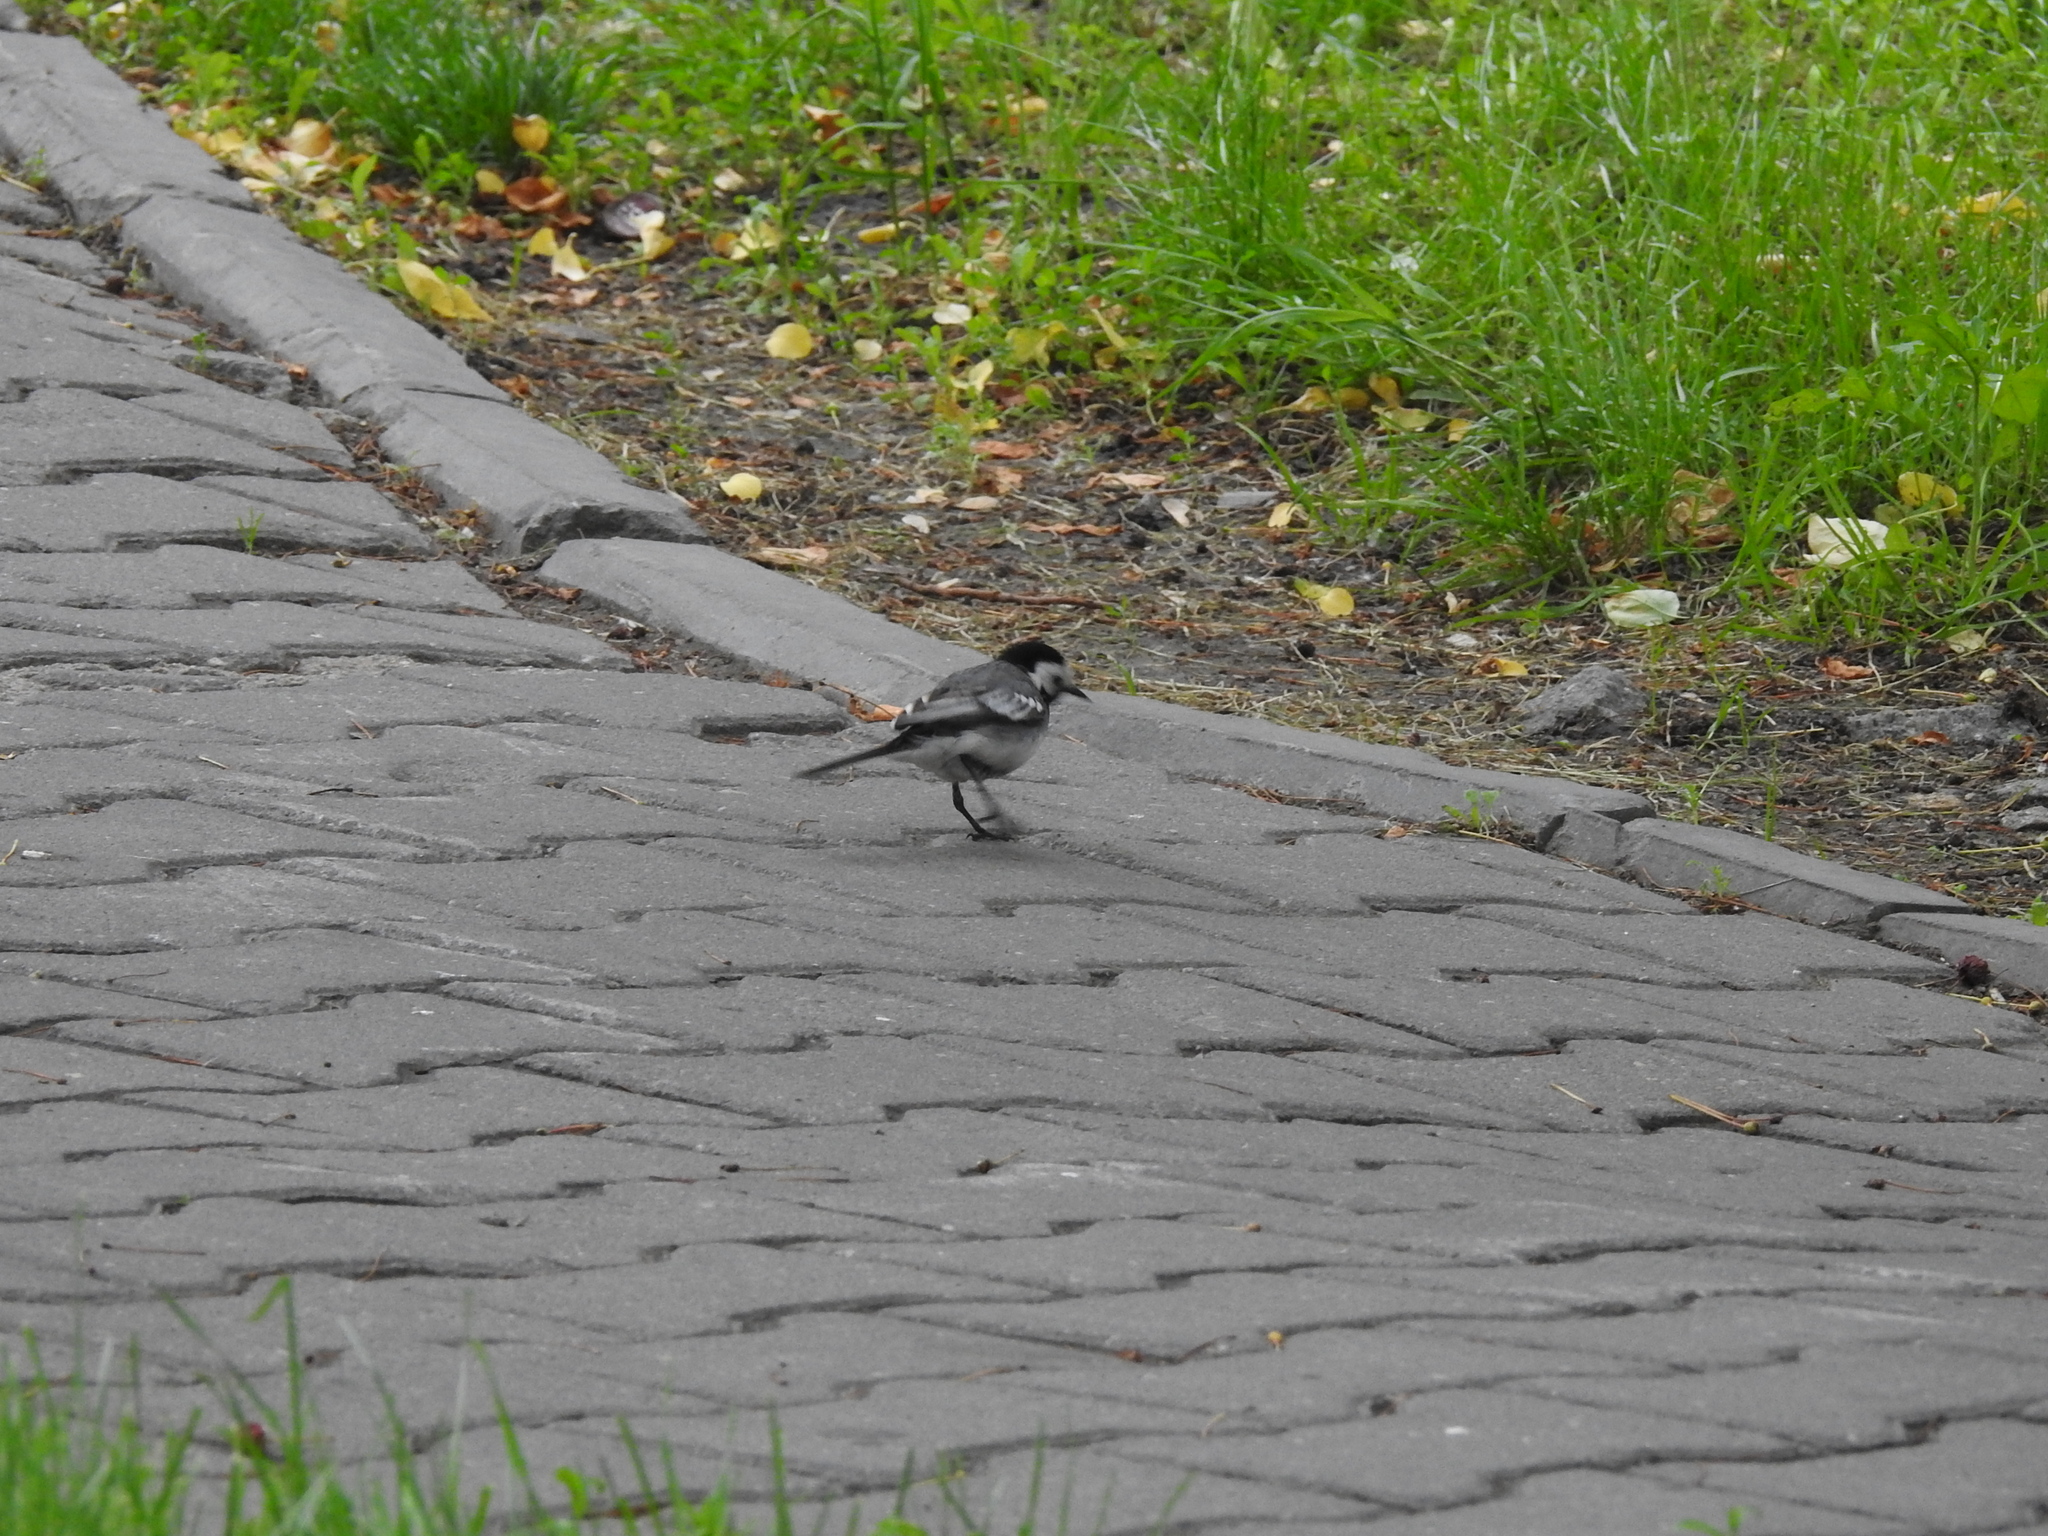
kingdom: Animalia
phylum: Chordata
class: Aves
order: Passeriformes
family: Motacillidae
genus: Motacilla
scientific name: Motacilla alba
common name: White wagtail
